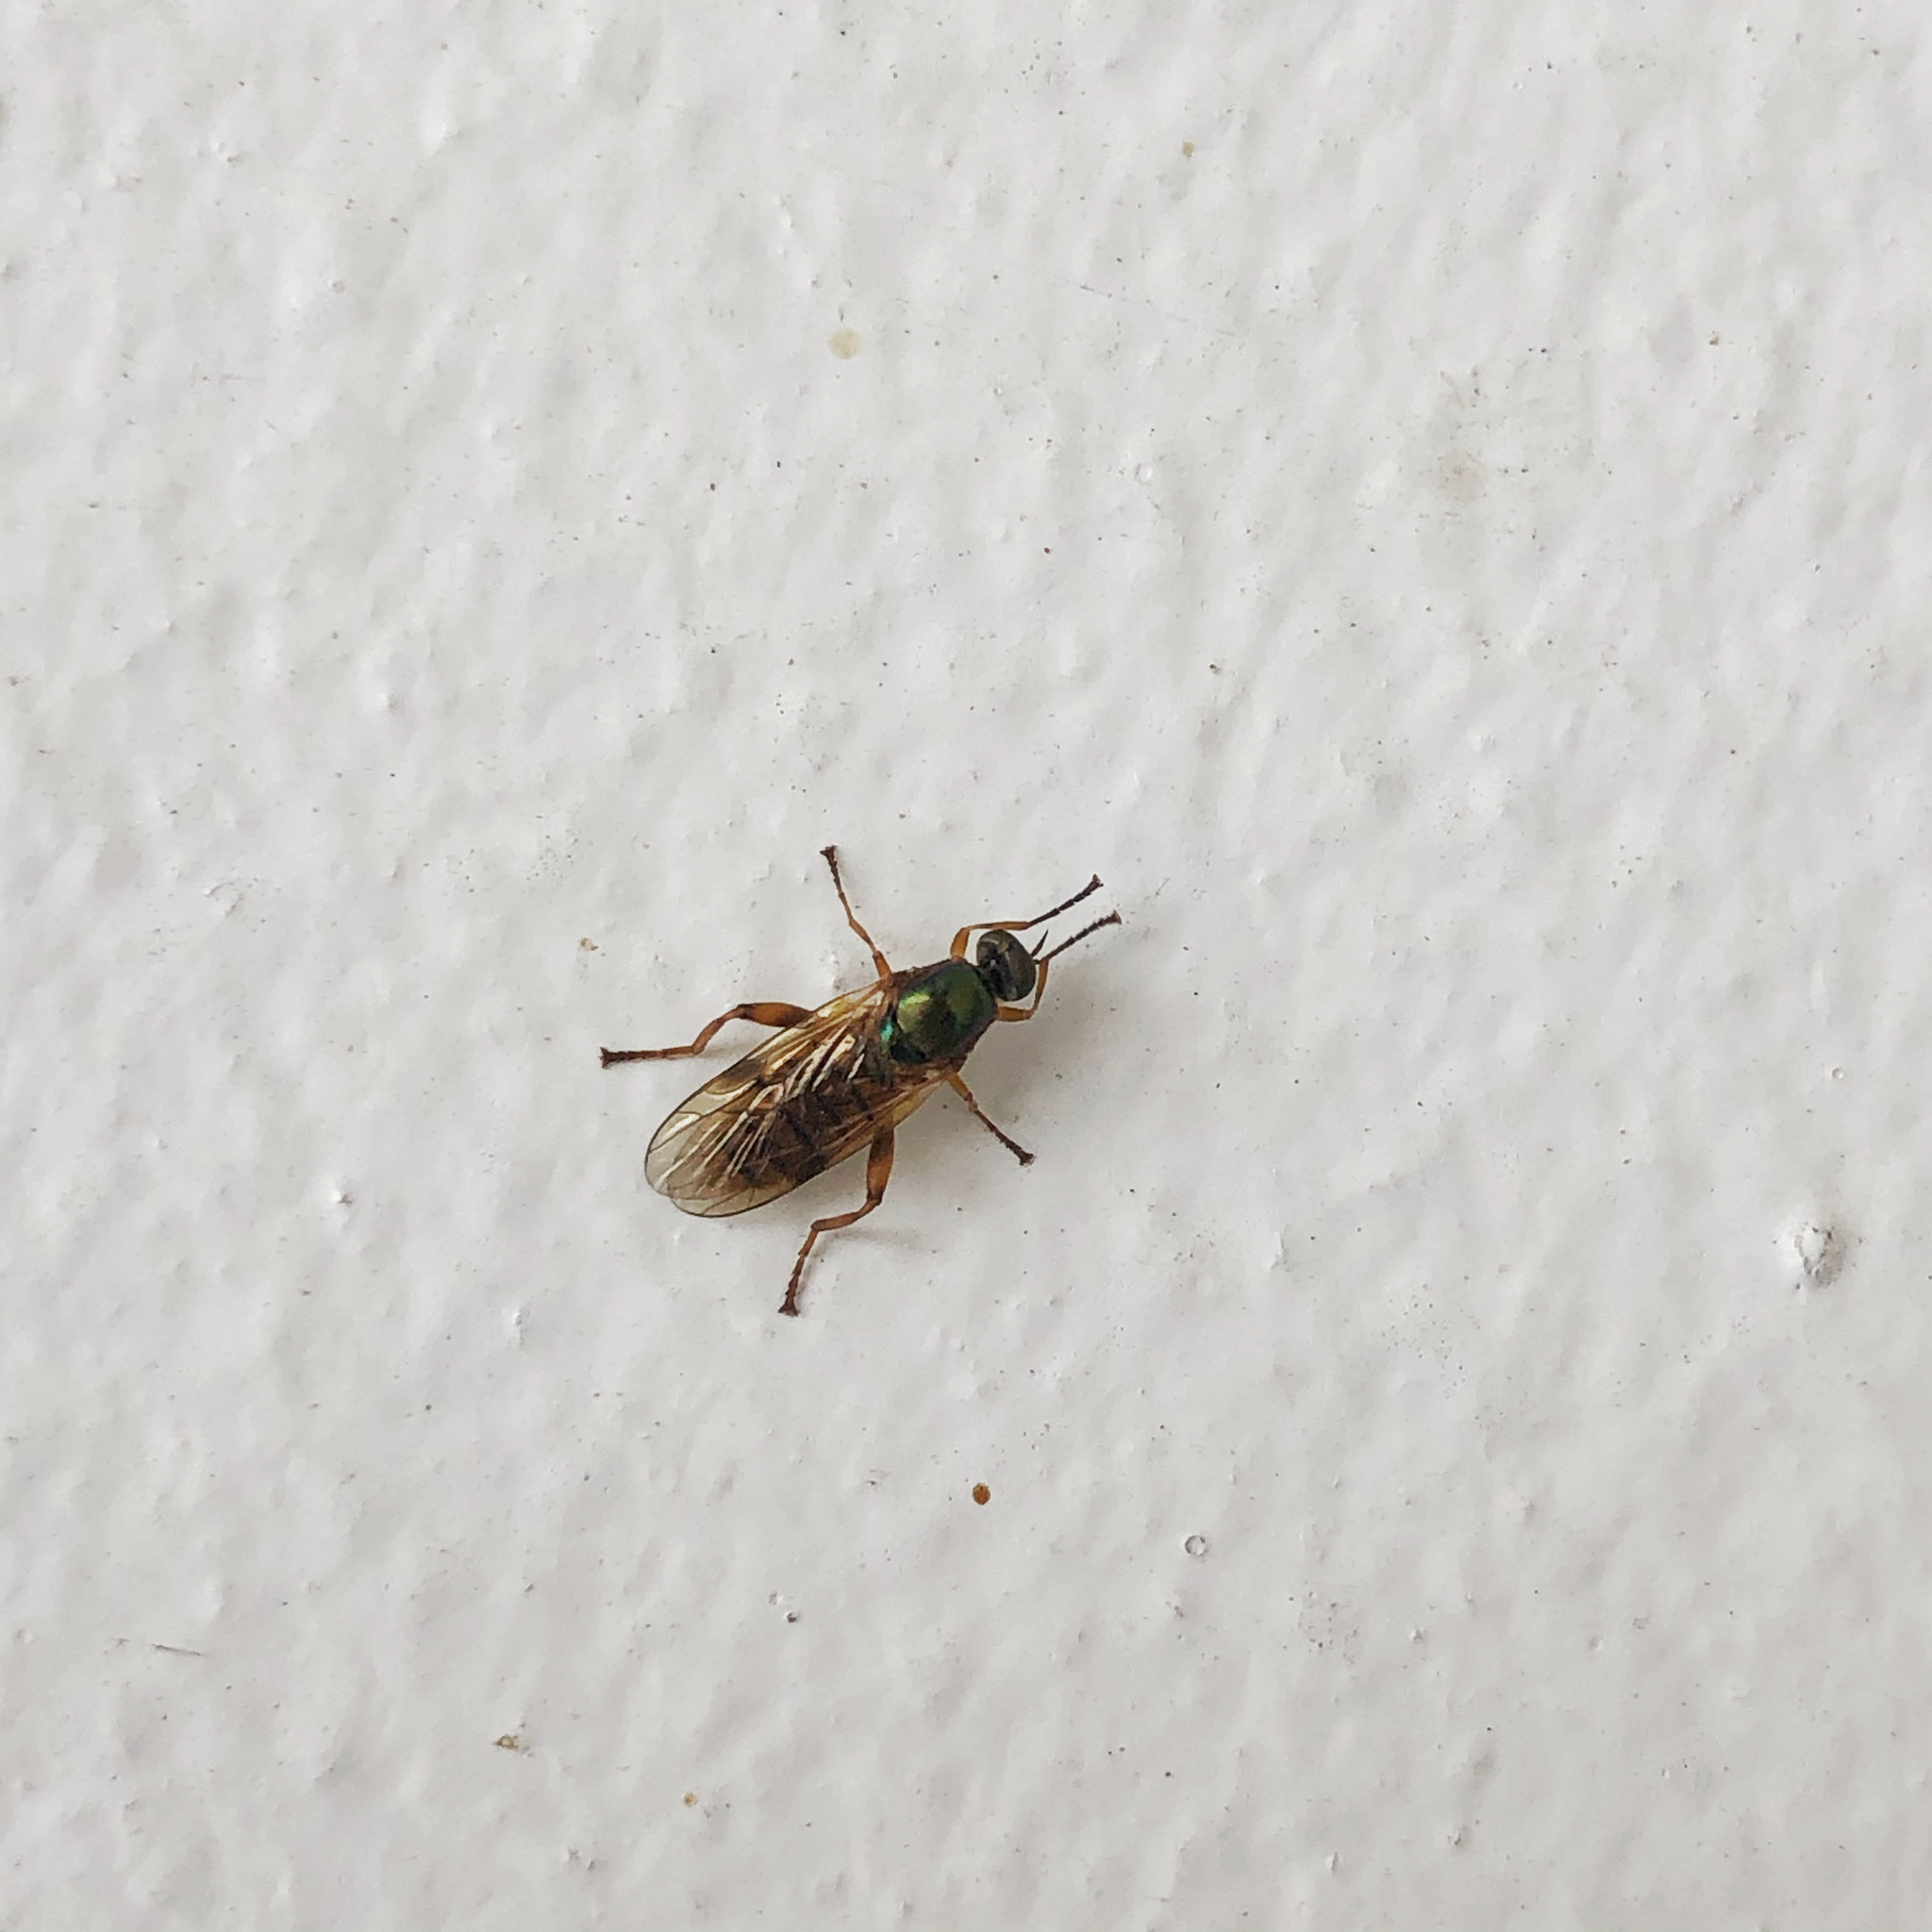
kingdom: Animalia
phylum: Arthropoda
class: Insecta
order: Diptera
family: Stratiomyidae
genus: Neactina
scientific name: Neactina opposita
